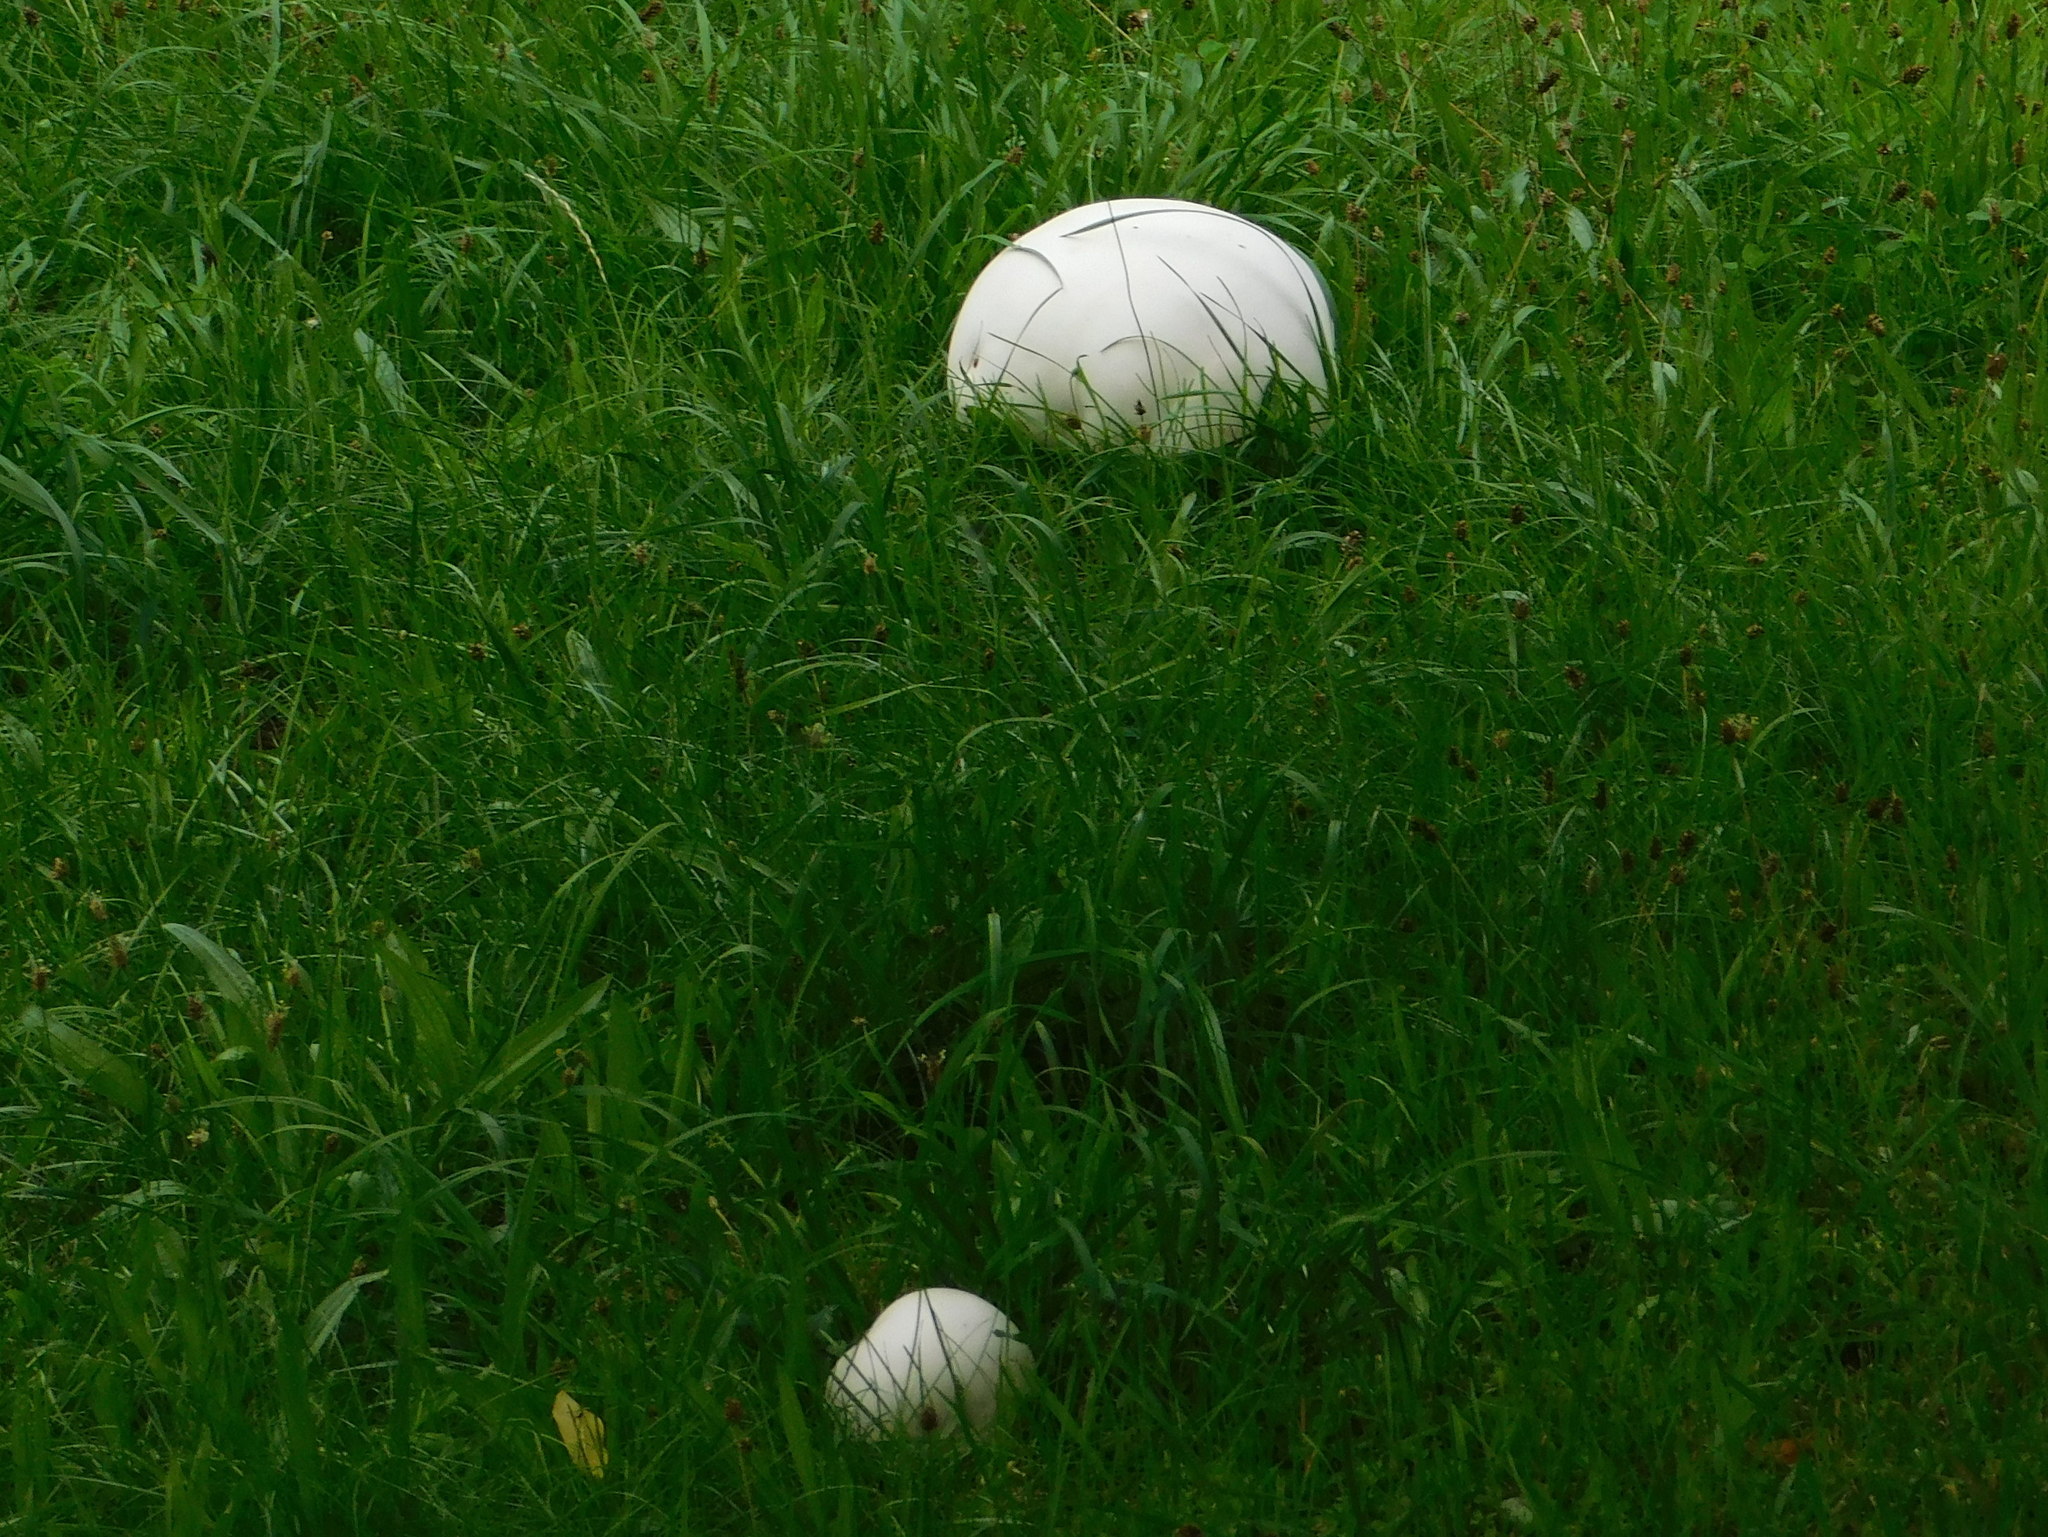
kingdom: Fungi
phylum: Basidiomycota
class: Agaricomycetes
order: Agaricales
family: Lycoperdaceae
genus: Calvatia
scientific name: Calvatia gigantea
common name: Giant puffball
